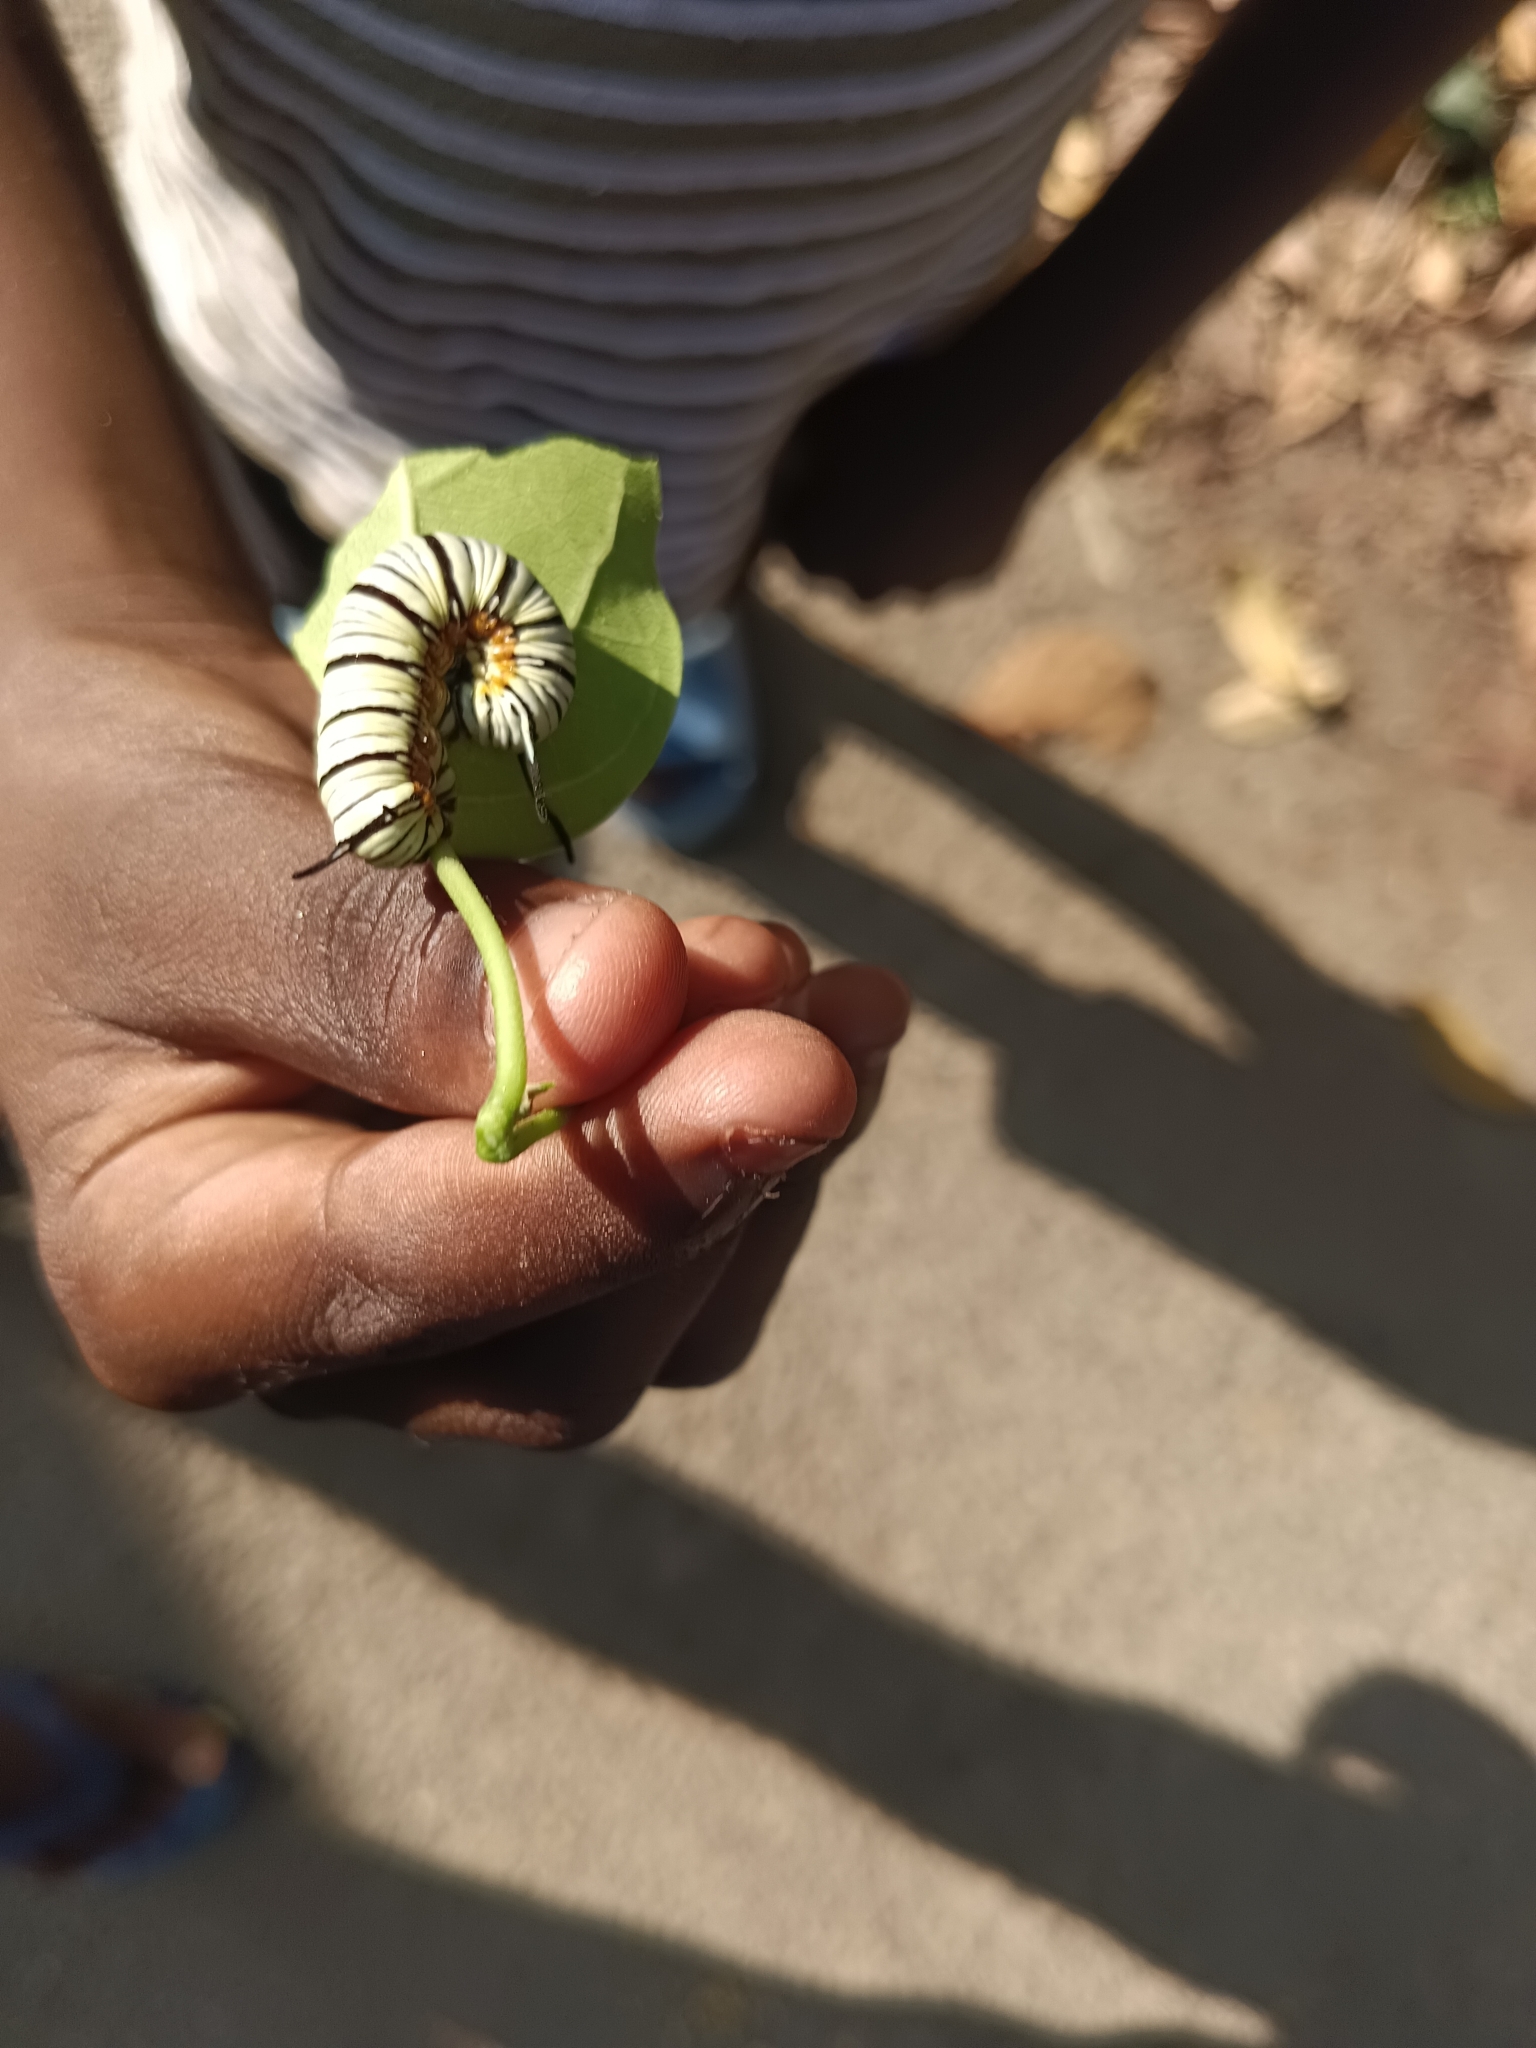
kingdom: Animalia
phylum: Arthropoda
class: Insecta
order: Lepidoptera
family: Nymphalidae
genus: Tirumala
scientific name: Tirumala limniace
